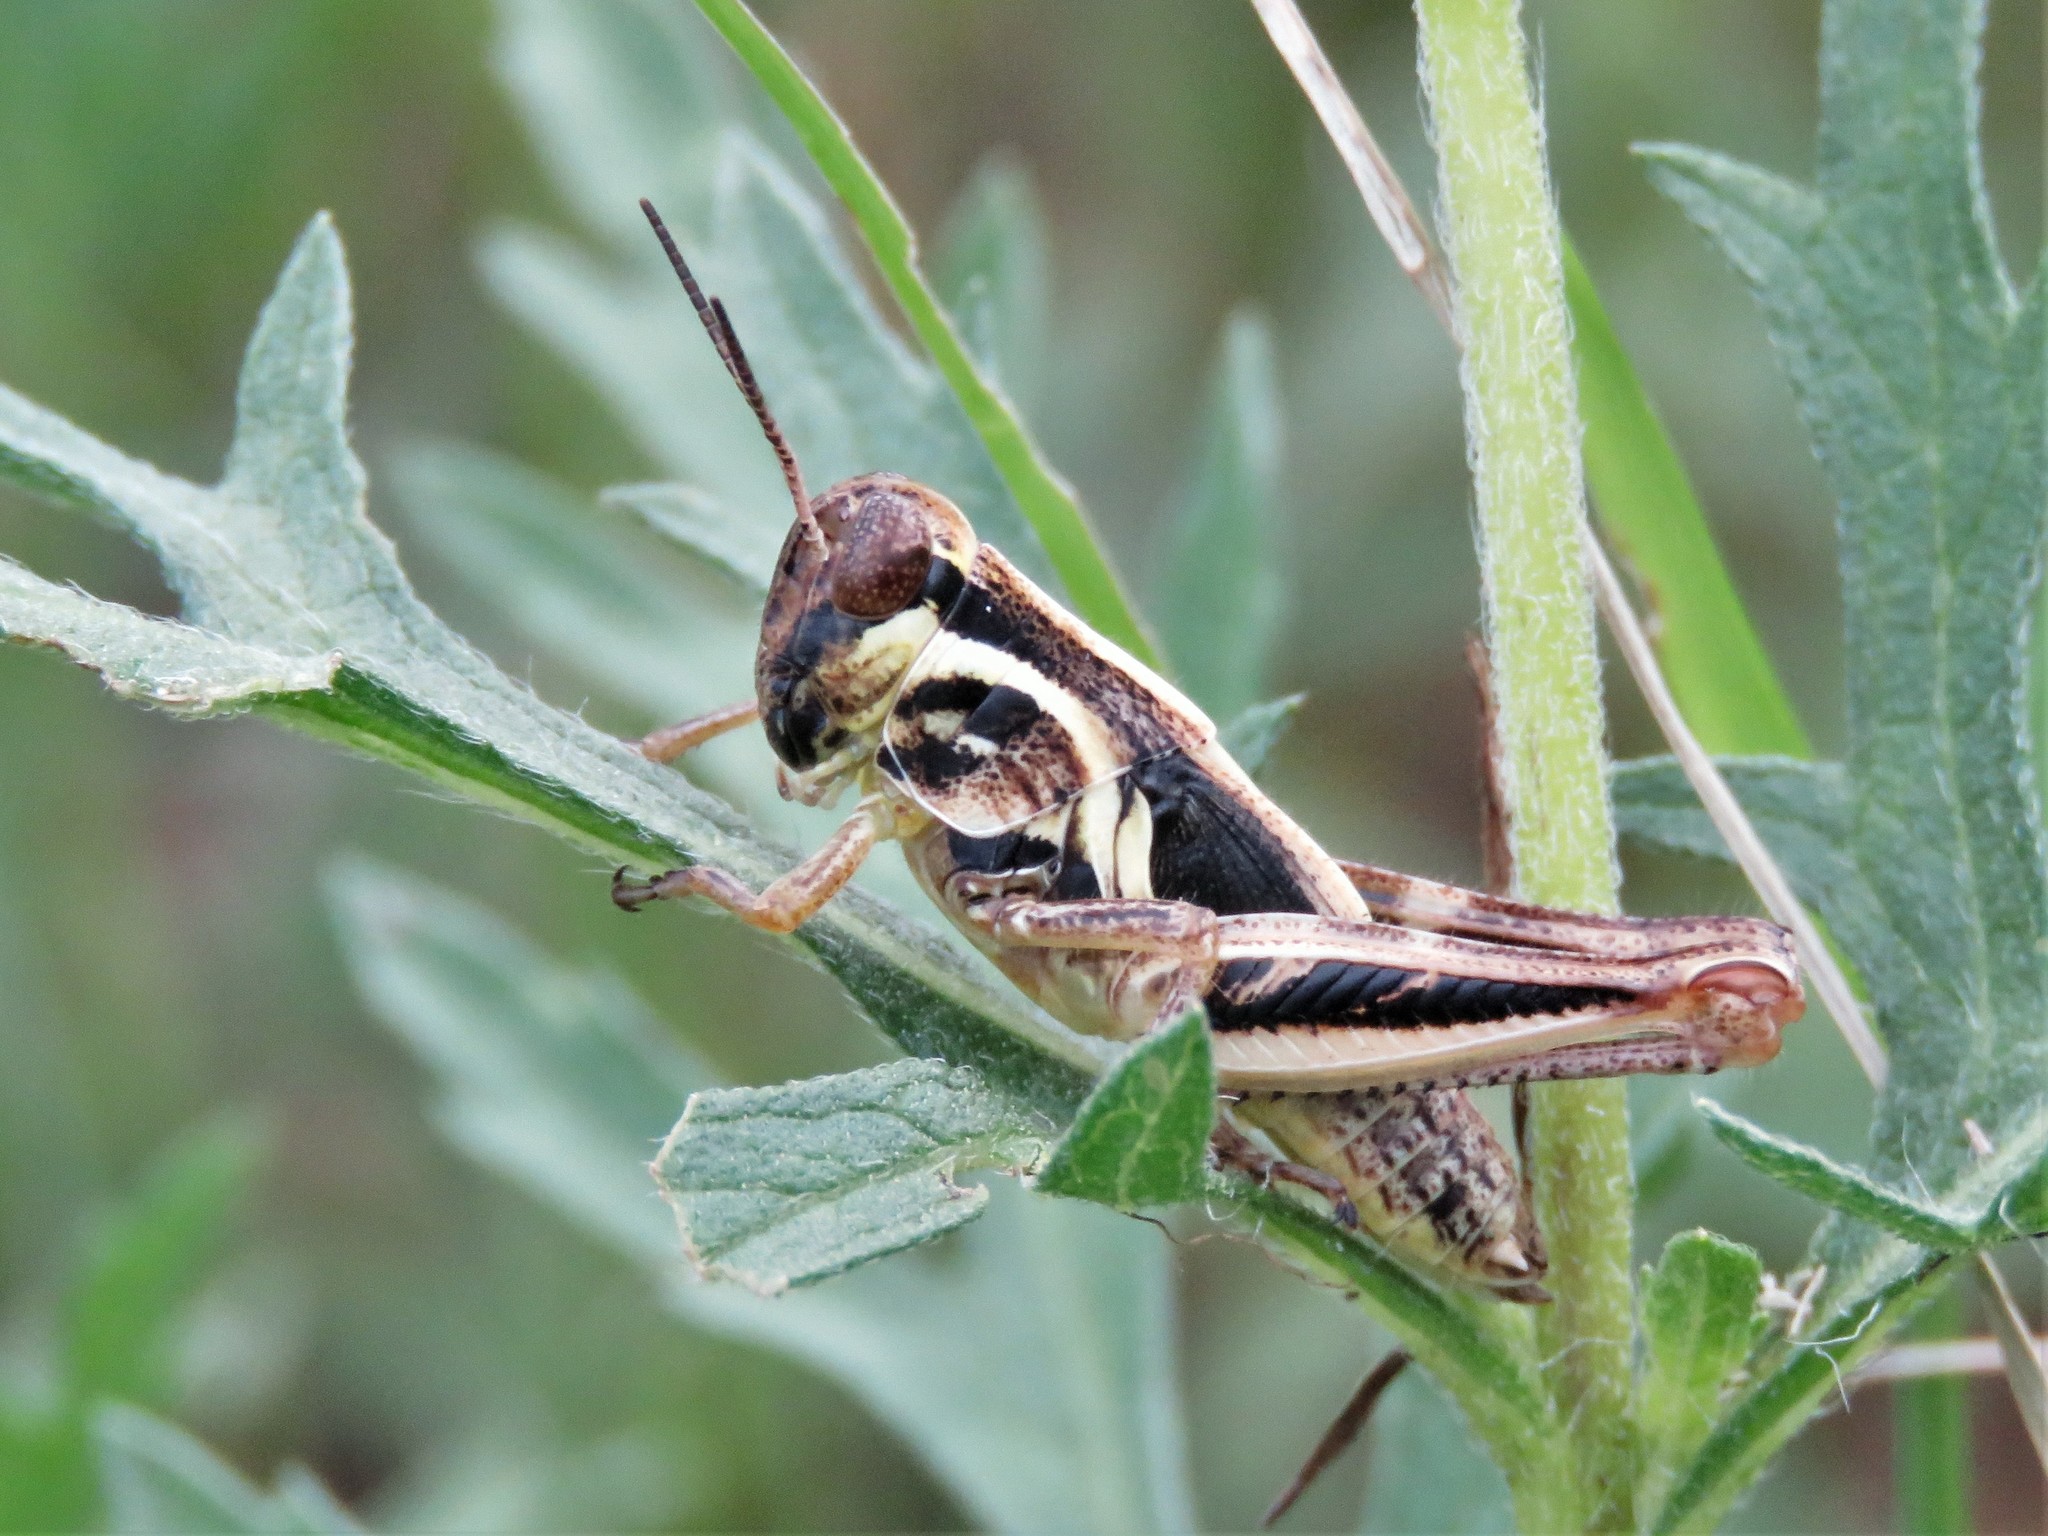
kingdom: Animalia
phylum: Arthropoda
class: Insecta
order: Orthoptera
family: Acrididae
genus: Melanoplus
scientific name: Melanoplus femurrubrum
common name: Red-legged grasshopper
